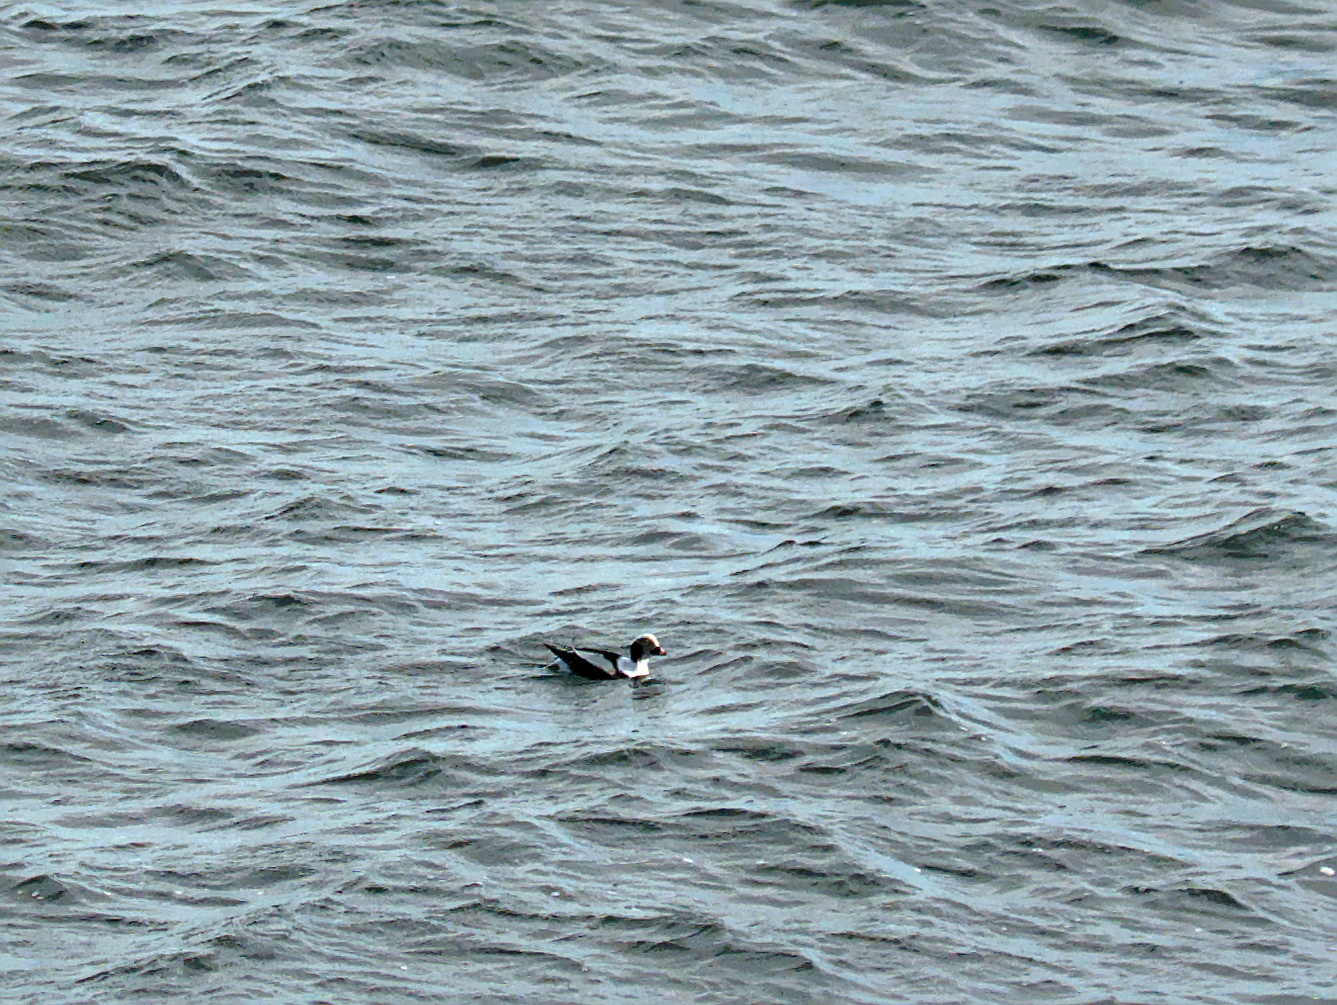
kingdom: Animalia
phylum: Chordata
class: Aves
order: Anseriformes
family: Anatidae
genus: Clangula
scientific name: Clangula hyemalis
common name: Long-tailed duck
